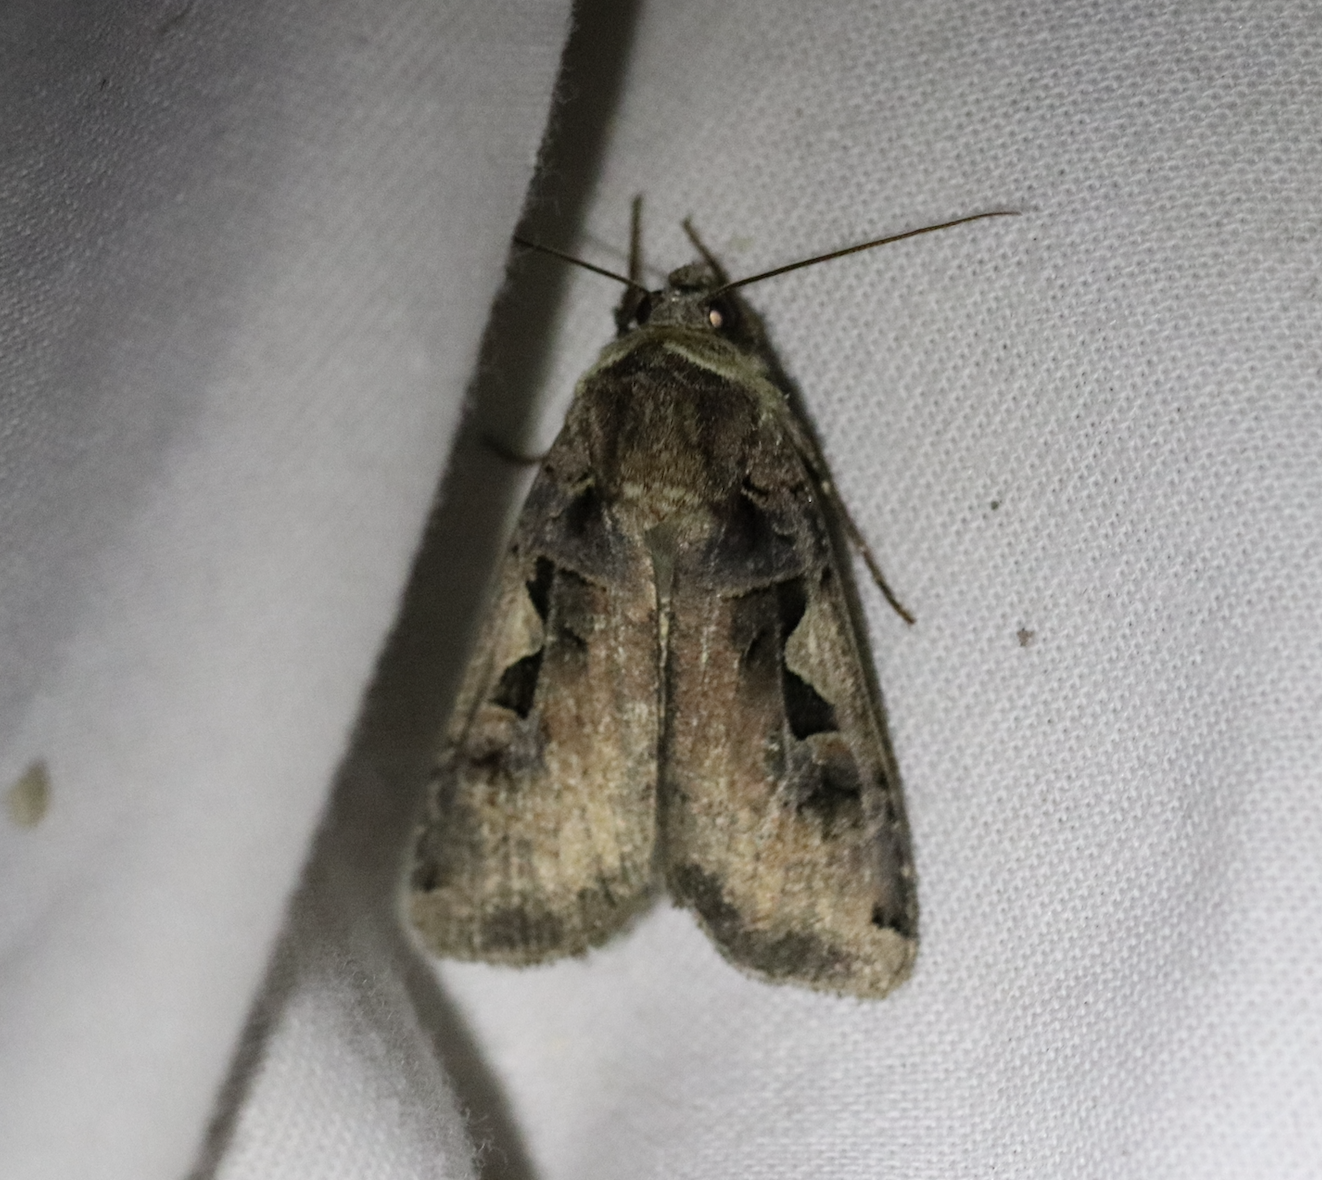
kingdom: Animalia
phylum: Arthropoda
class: Insecta
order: Lepidoptera
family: Noctuidae
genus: Xestia
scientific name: Xestia c-nigrum
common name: Setaceous hebrew character
